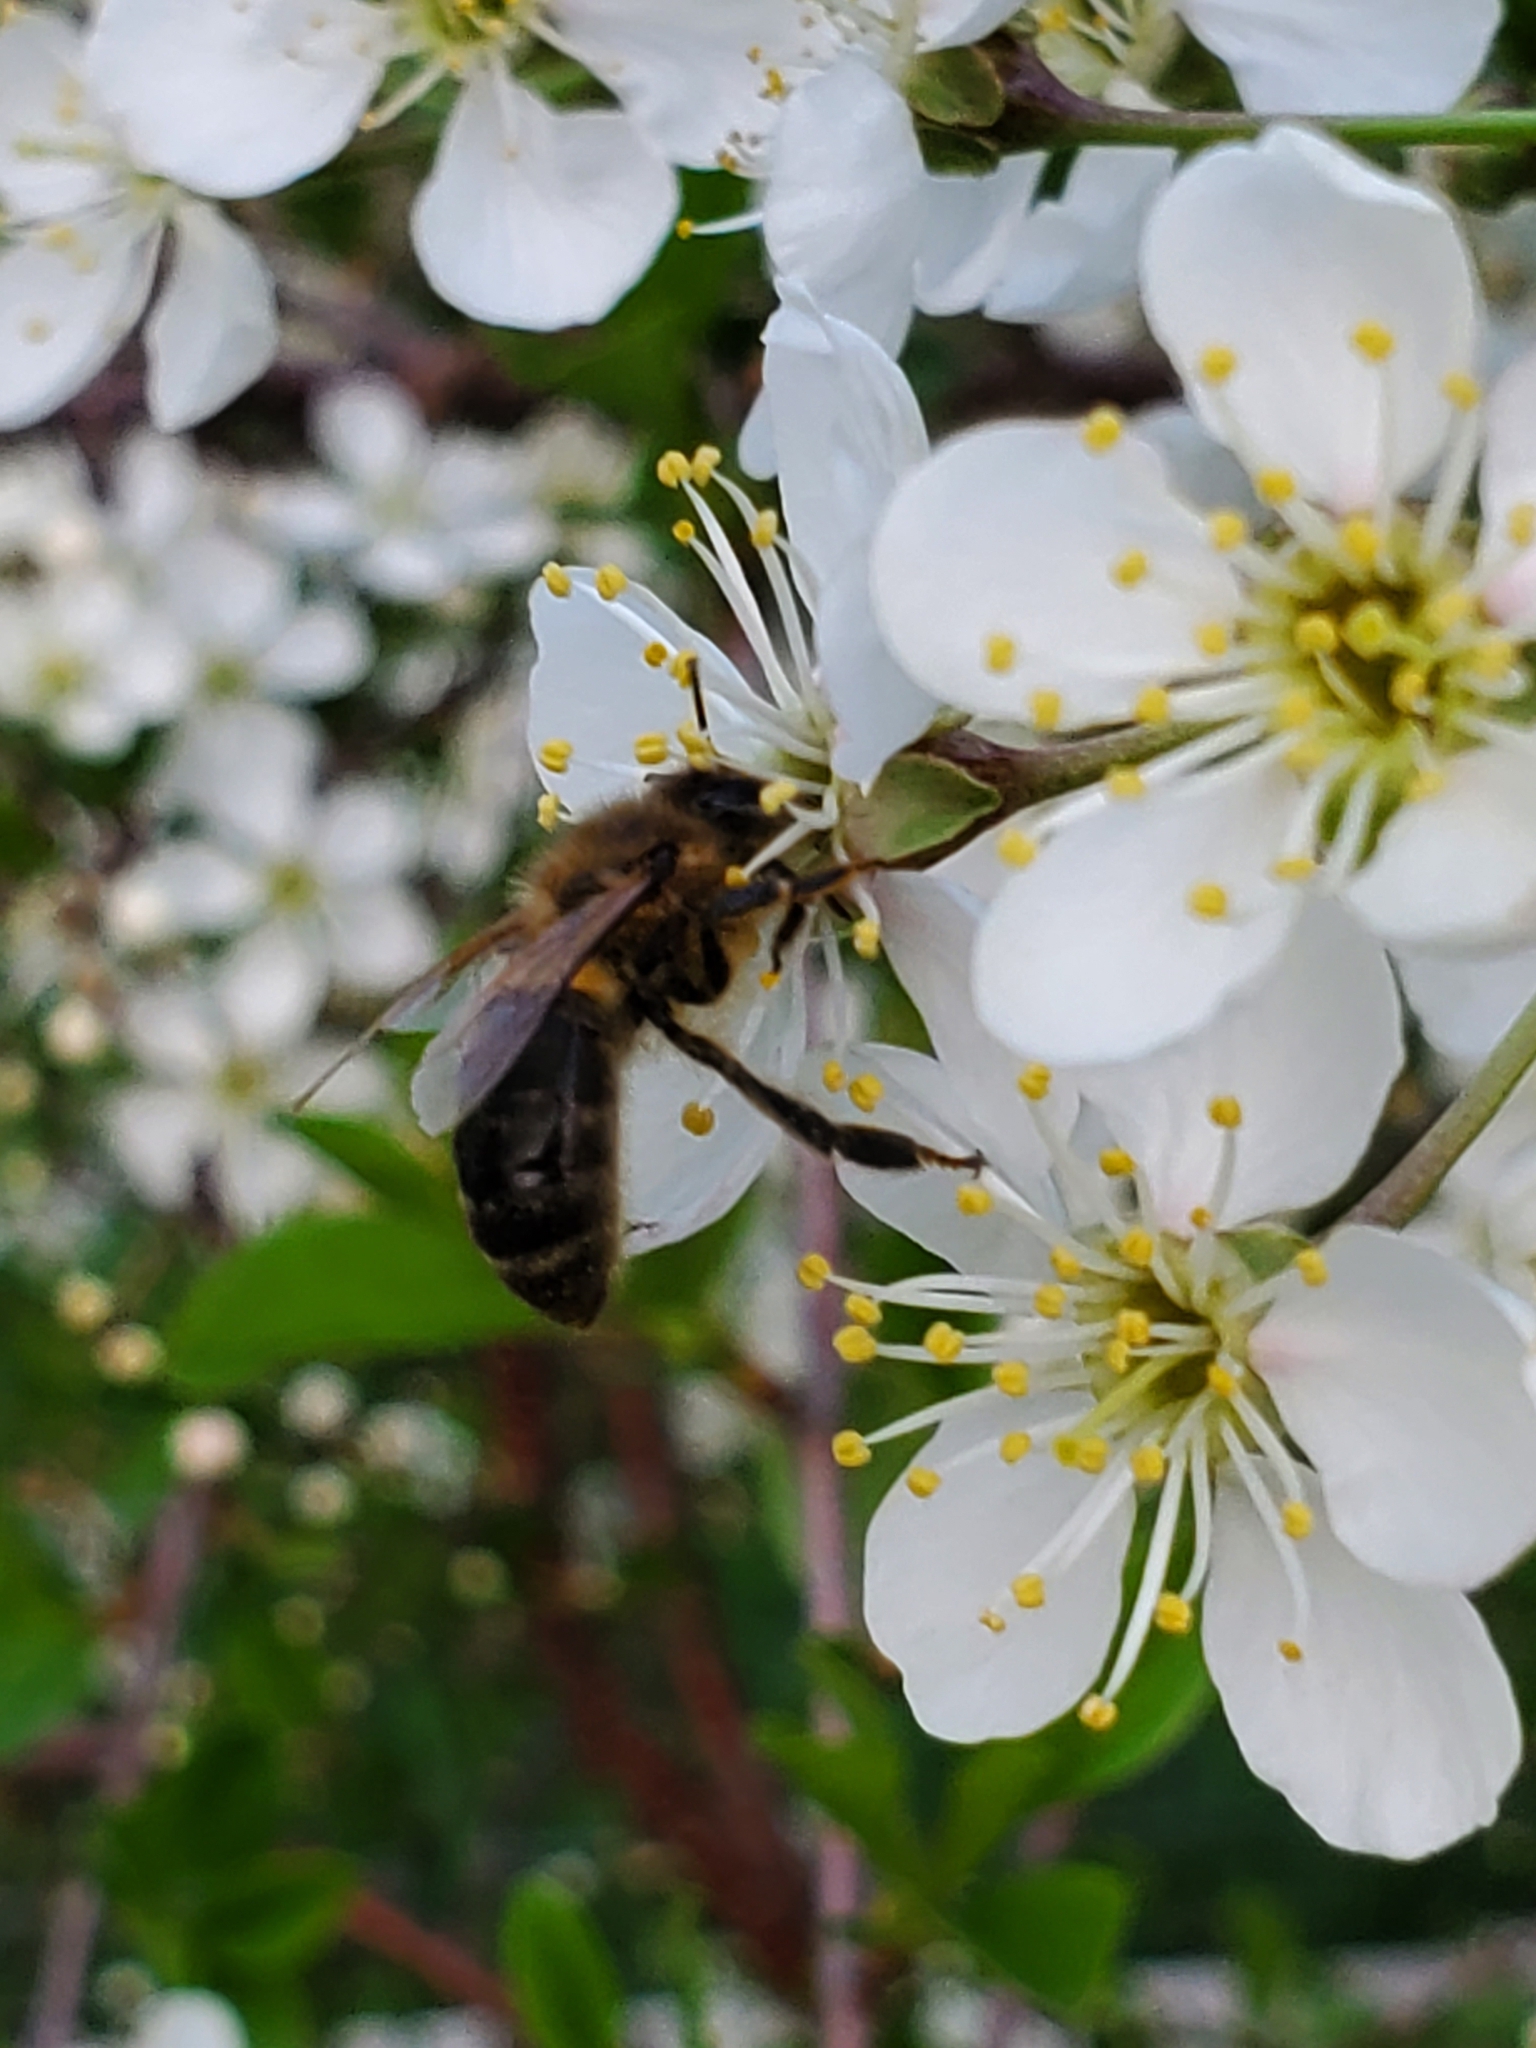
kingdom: Animalia
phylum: Arthropoda
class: Insecta
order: Hymenoptera
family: Apidae
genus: Apis
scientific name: Apis mellifera
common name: Honey bee
